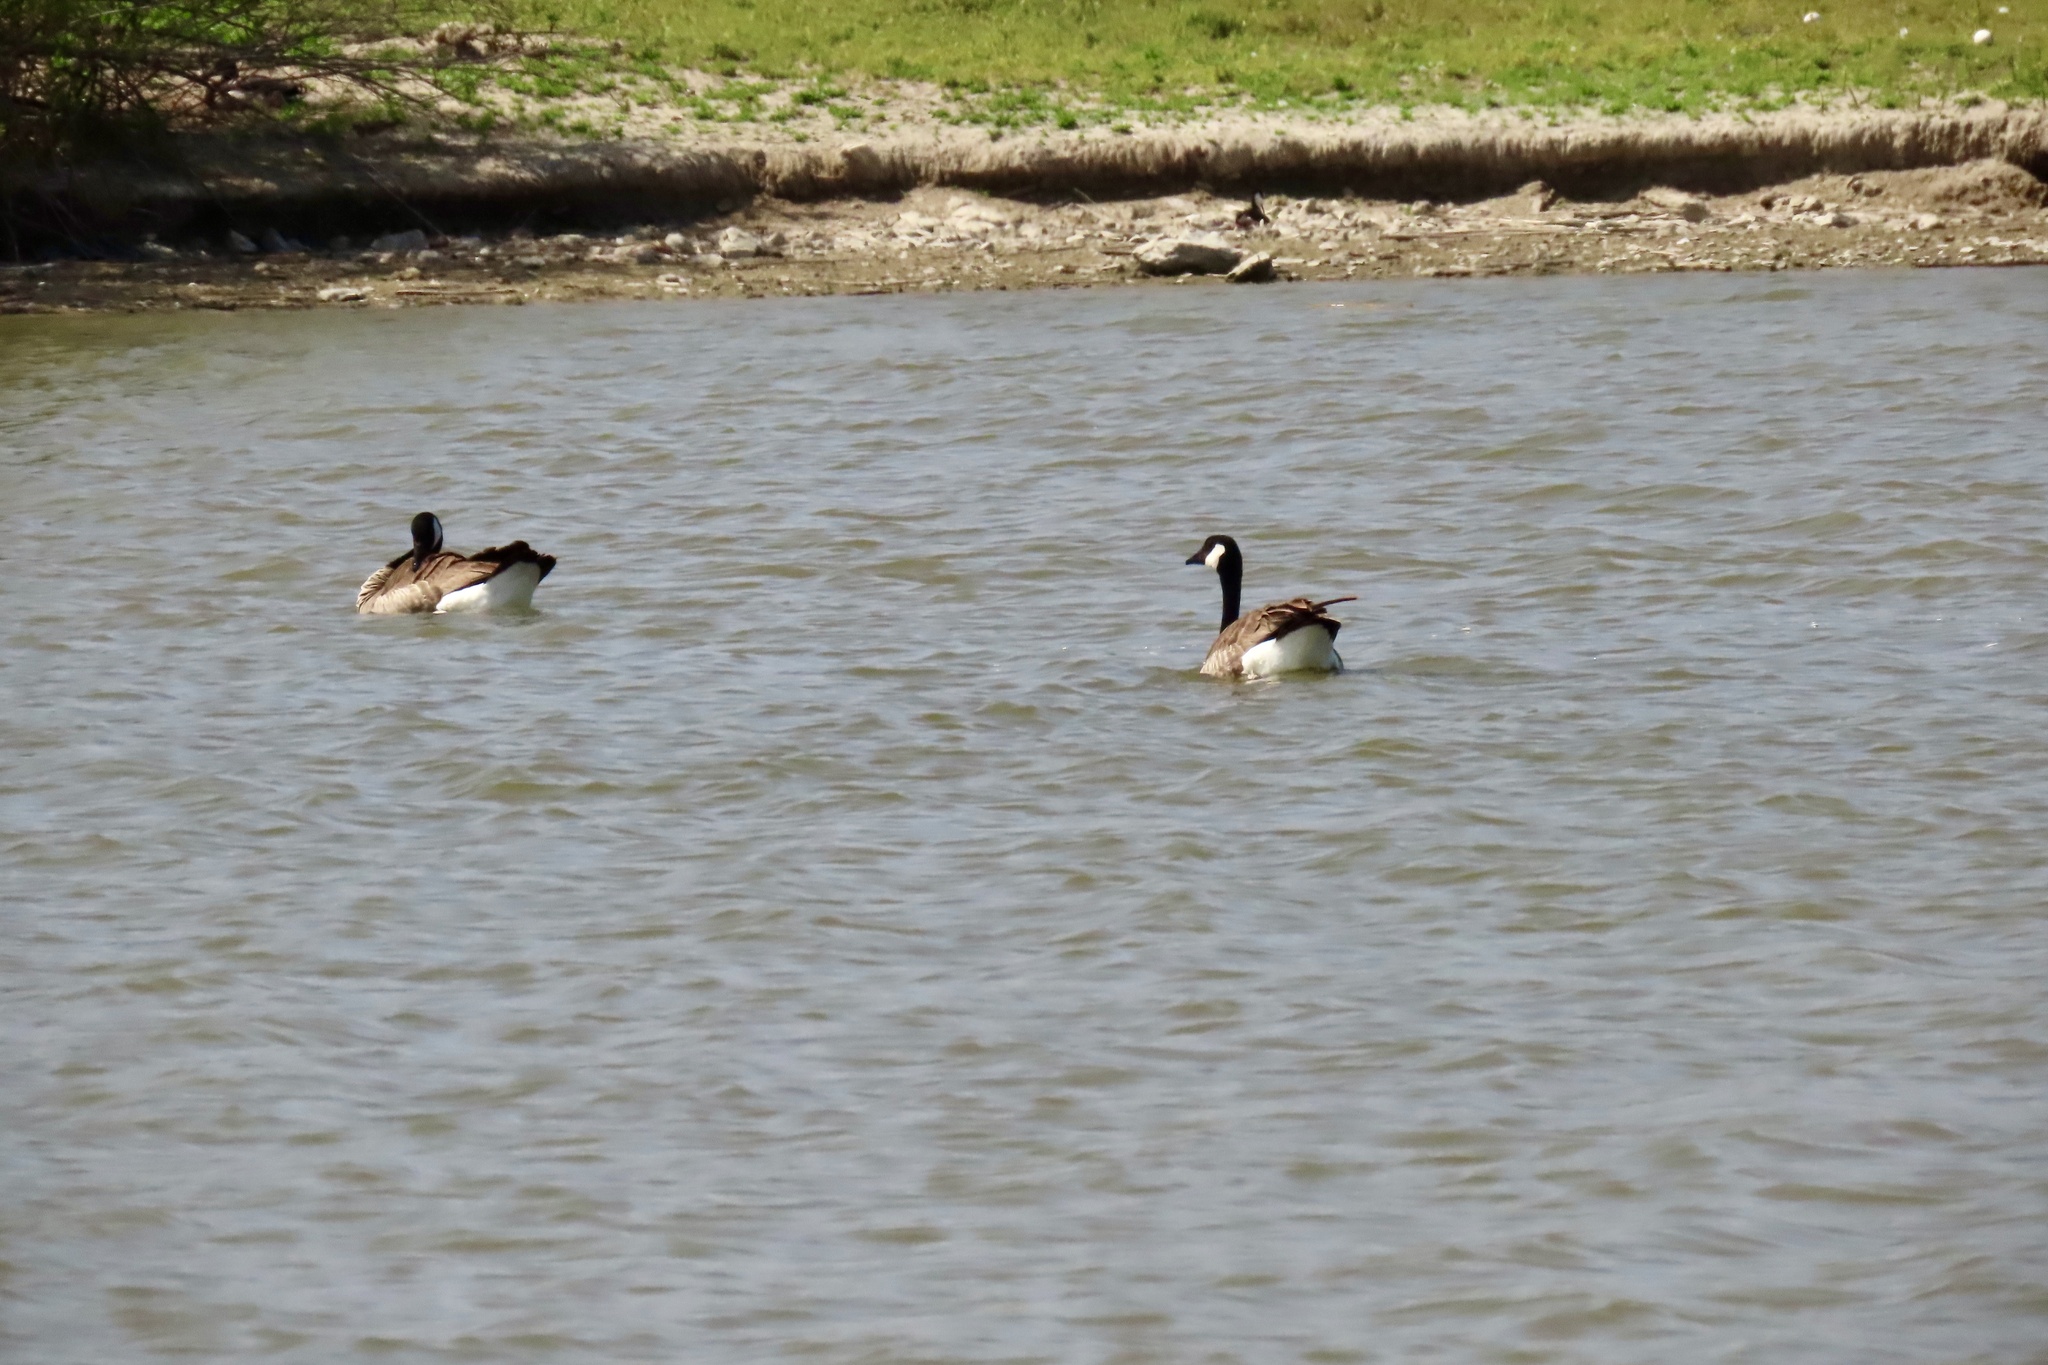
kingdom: Animalia
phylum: Chordata
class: Aves
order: Anseriformes
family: Anatidae
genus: Branta
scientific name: Branta canadensis
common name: Canada goose
